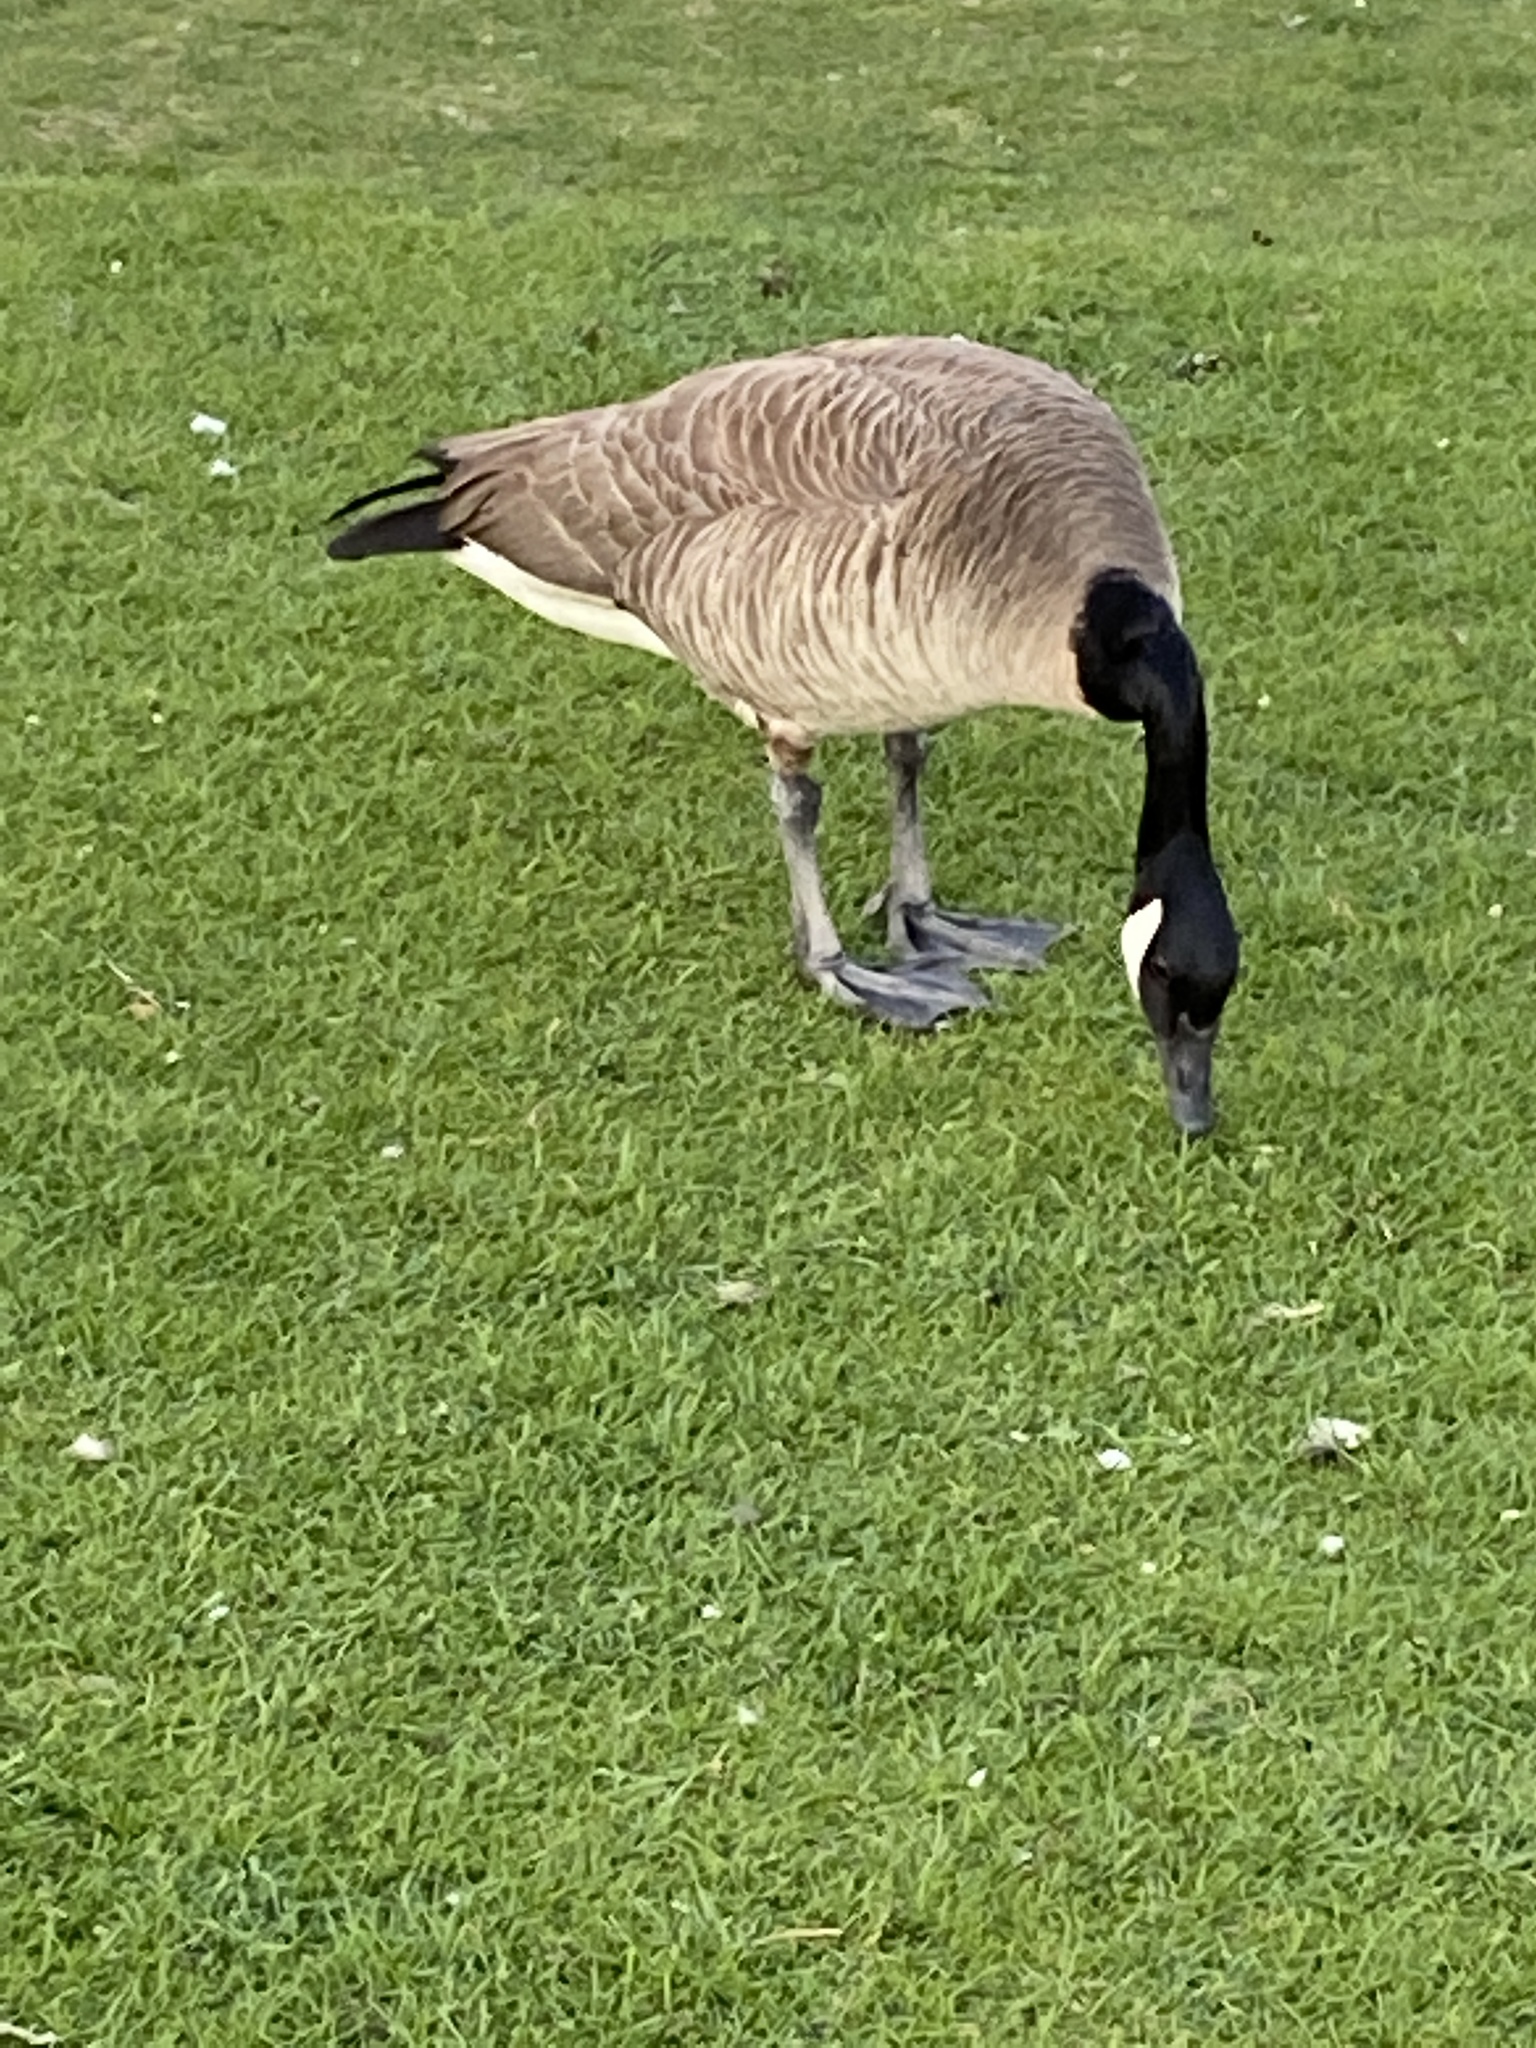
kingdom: Animalia
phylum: Chordata
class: Aves
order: Anseriformes
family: Anatidae
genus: Branta
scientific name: Branta canadensis
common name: Canada goose
